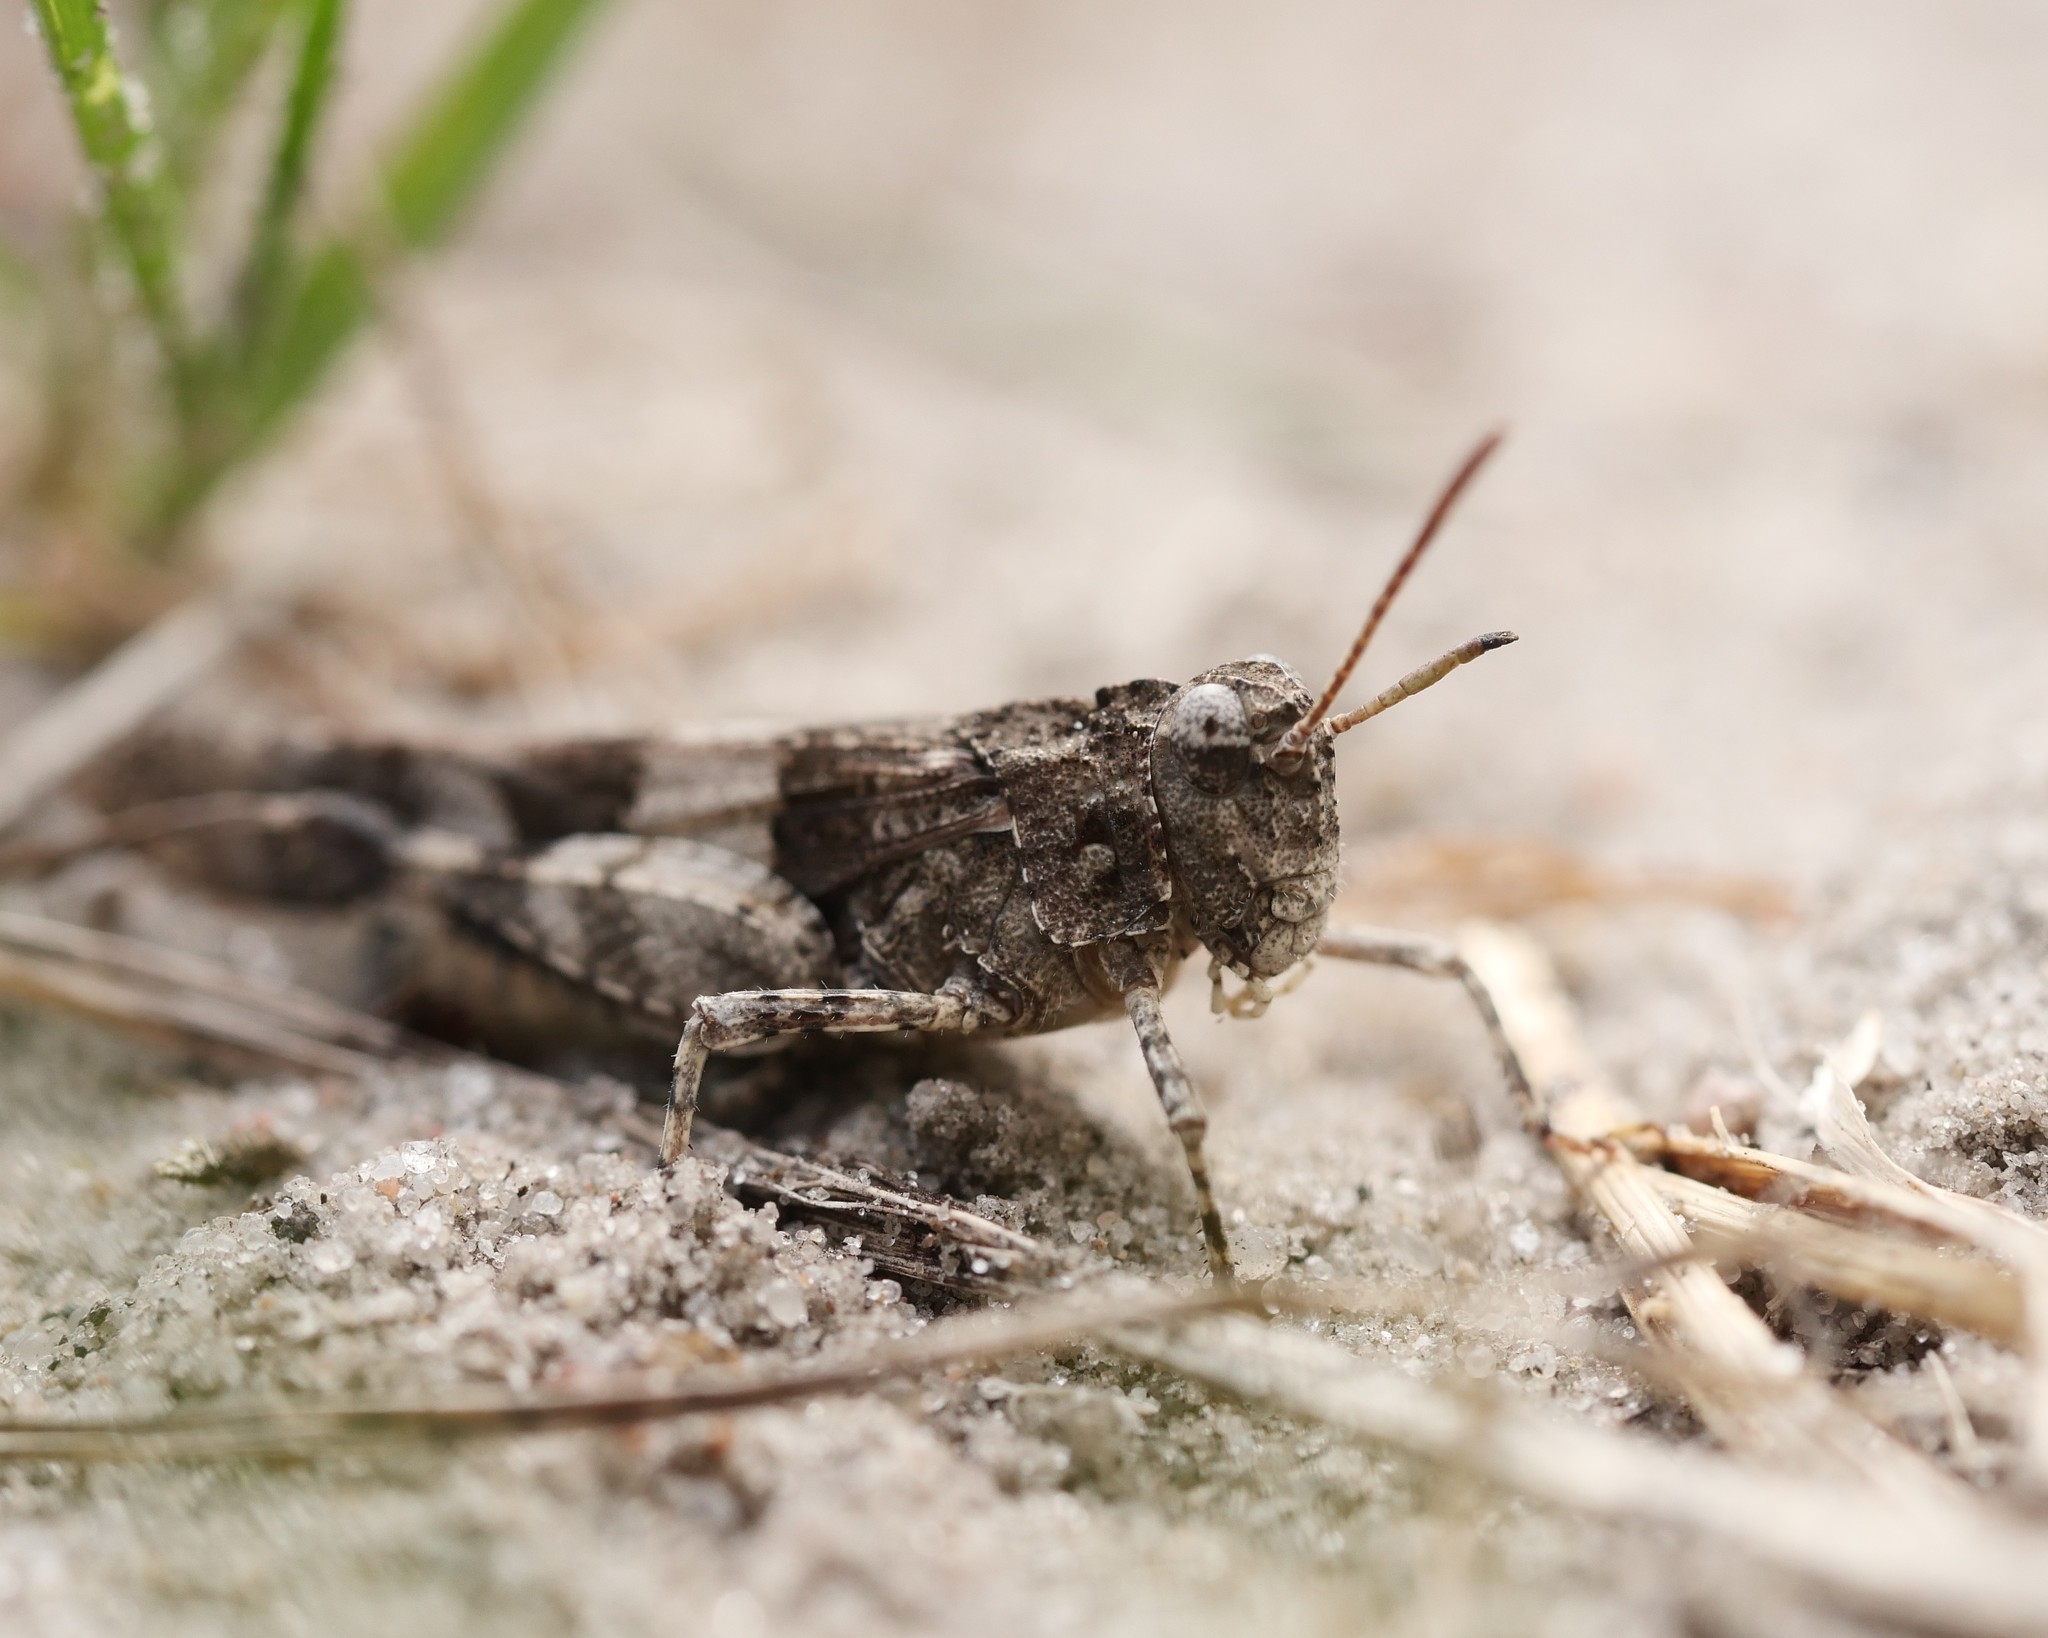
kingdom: Animalia
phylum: Arthropoda
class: Insecta
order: Orthoptera
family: Acrididae
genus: Oedipoda
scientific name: Oedipoda caerulescens
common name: Blue-winged grasshopper
